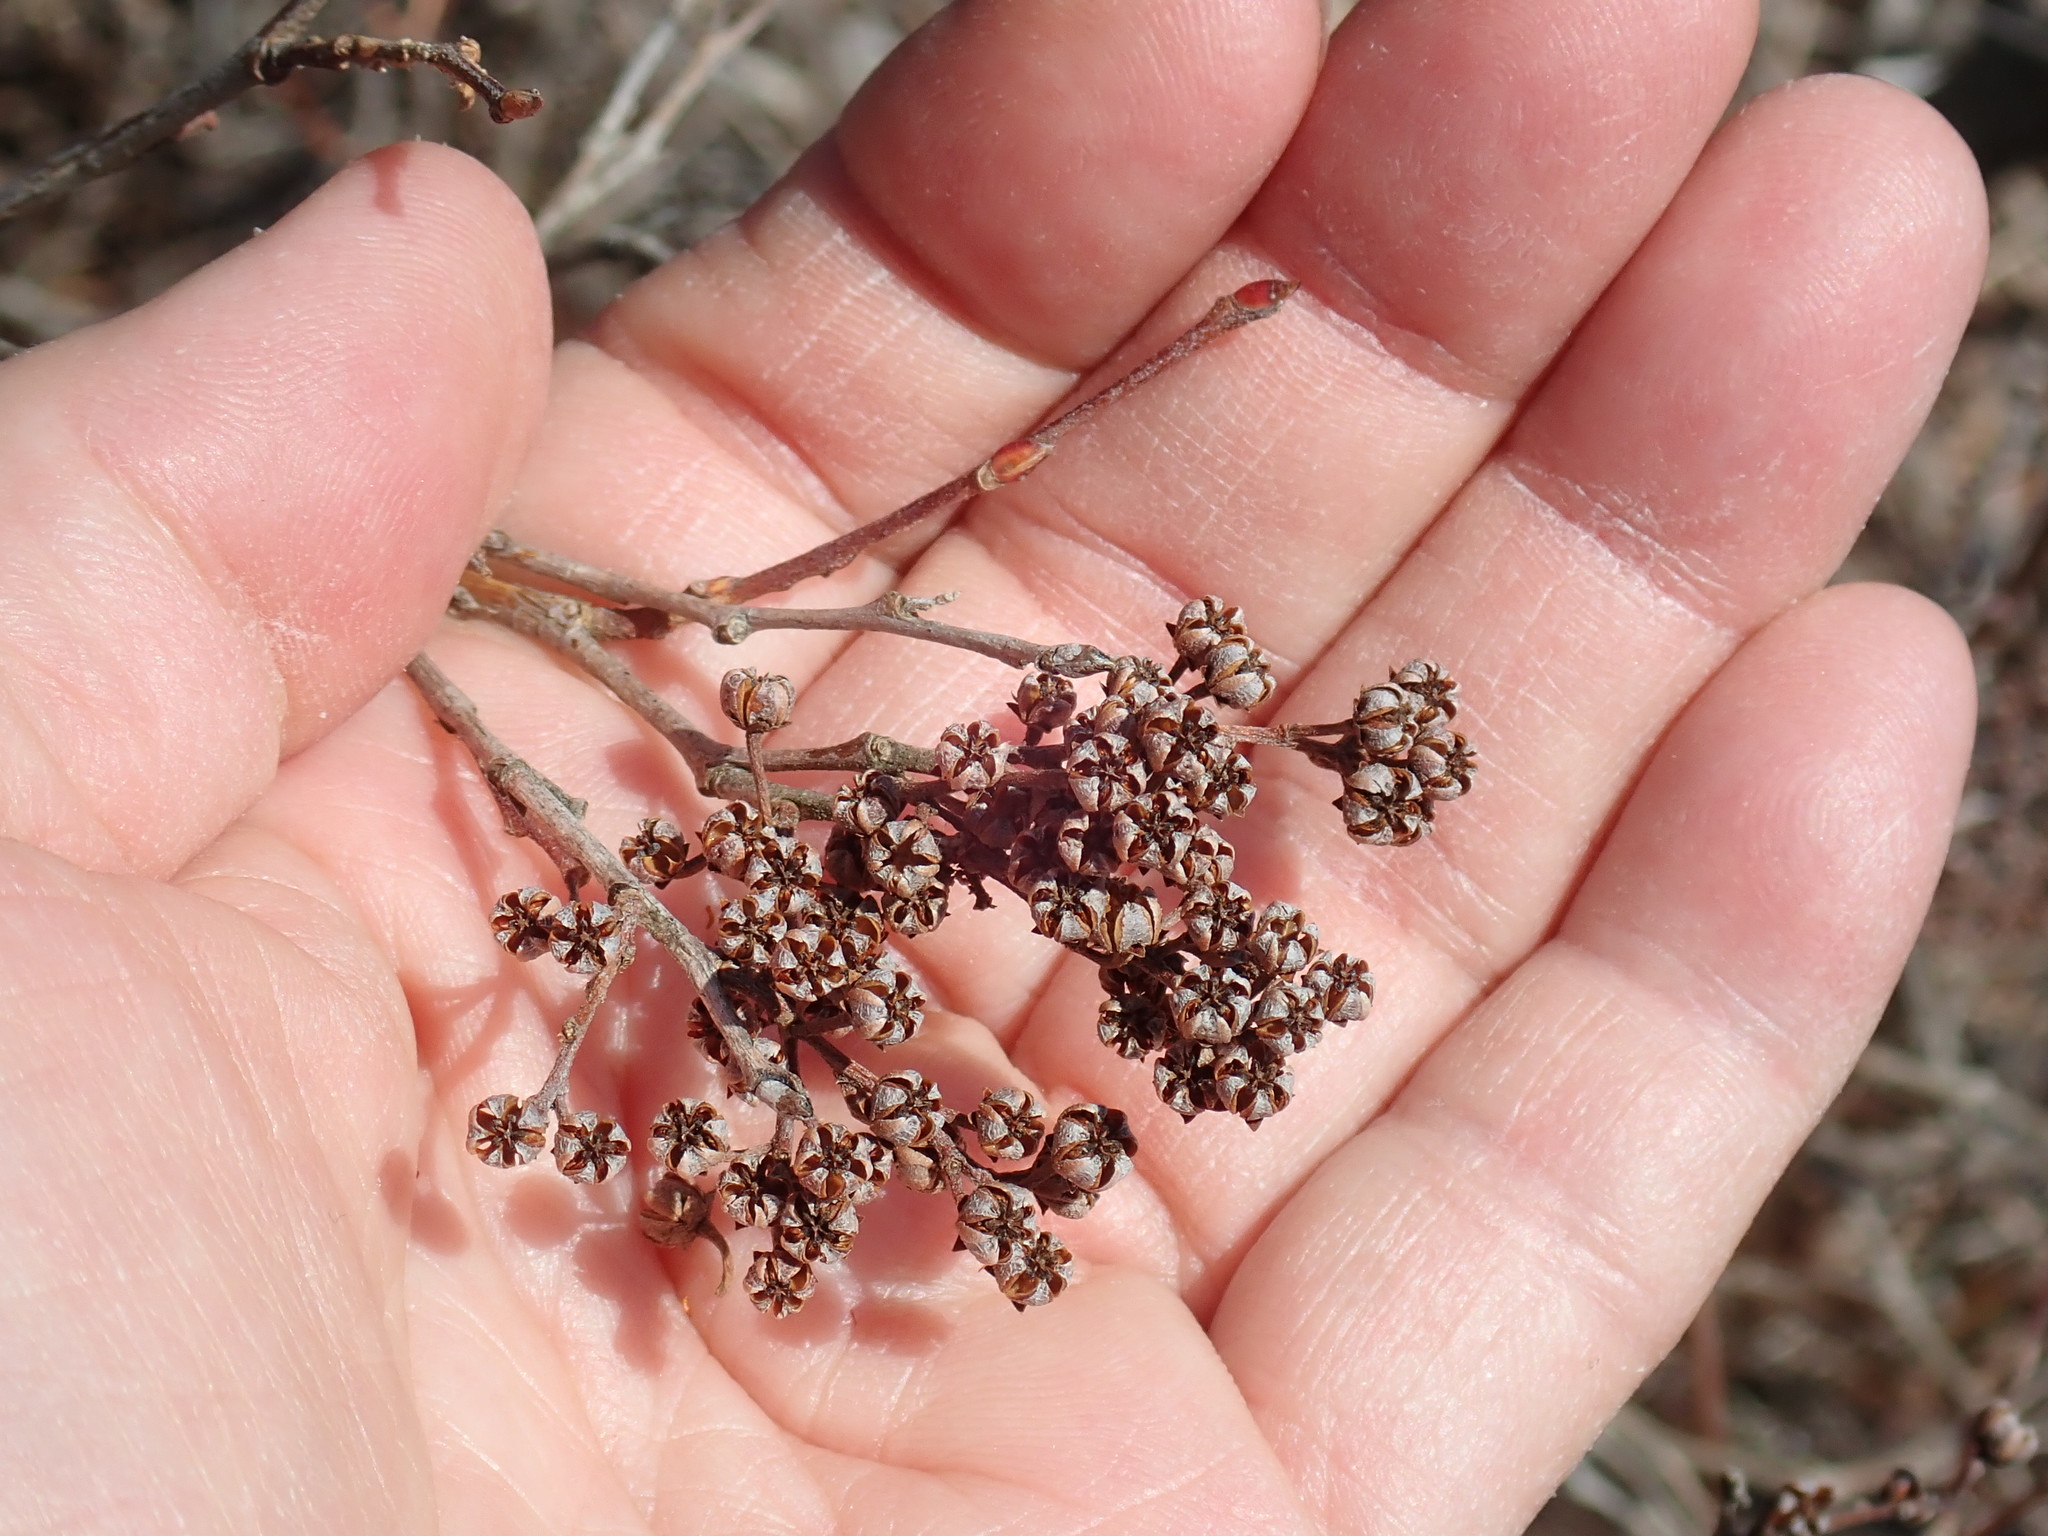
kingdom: Plantae
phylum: Tracheophyta
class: Magnoliopsida
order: Ericales
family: Ericaceae
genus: Lyonia
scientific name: Lyonia ligustrina
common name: Maleberry
